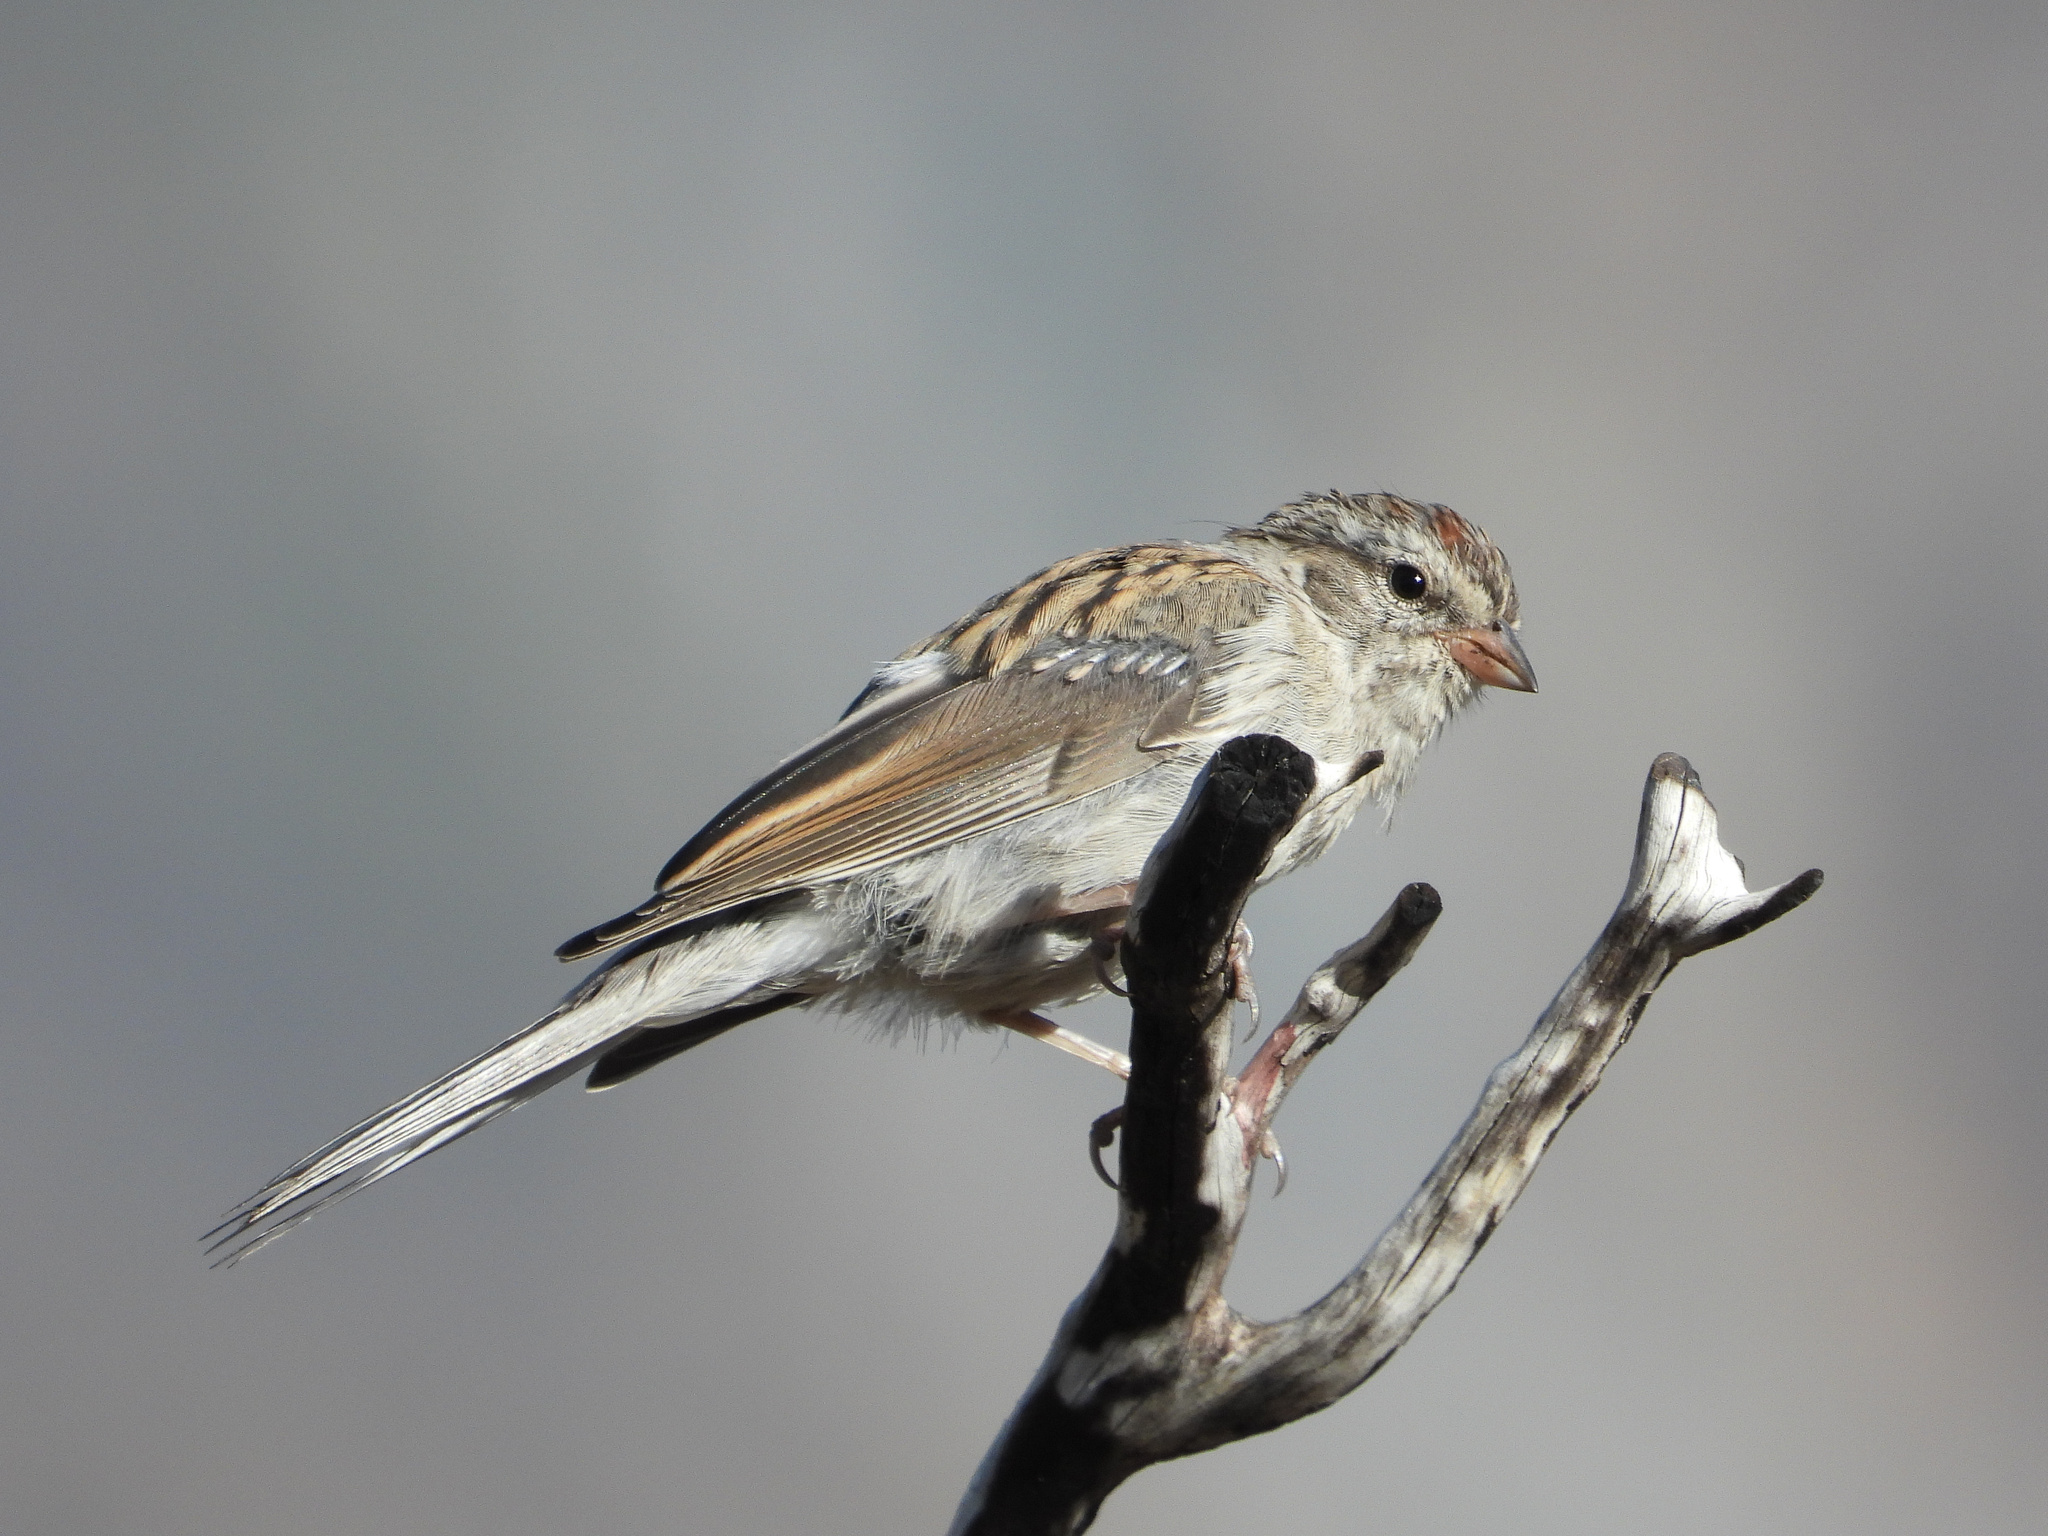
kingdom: Animalia
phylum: Chordata
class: Aves
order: Passeriformes
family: Passerellidae
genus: Spizella
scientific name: Spizella passerina
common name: Chipping sparrow
